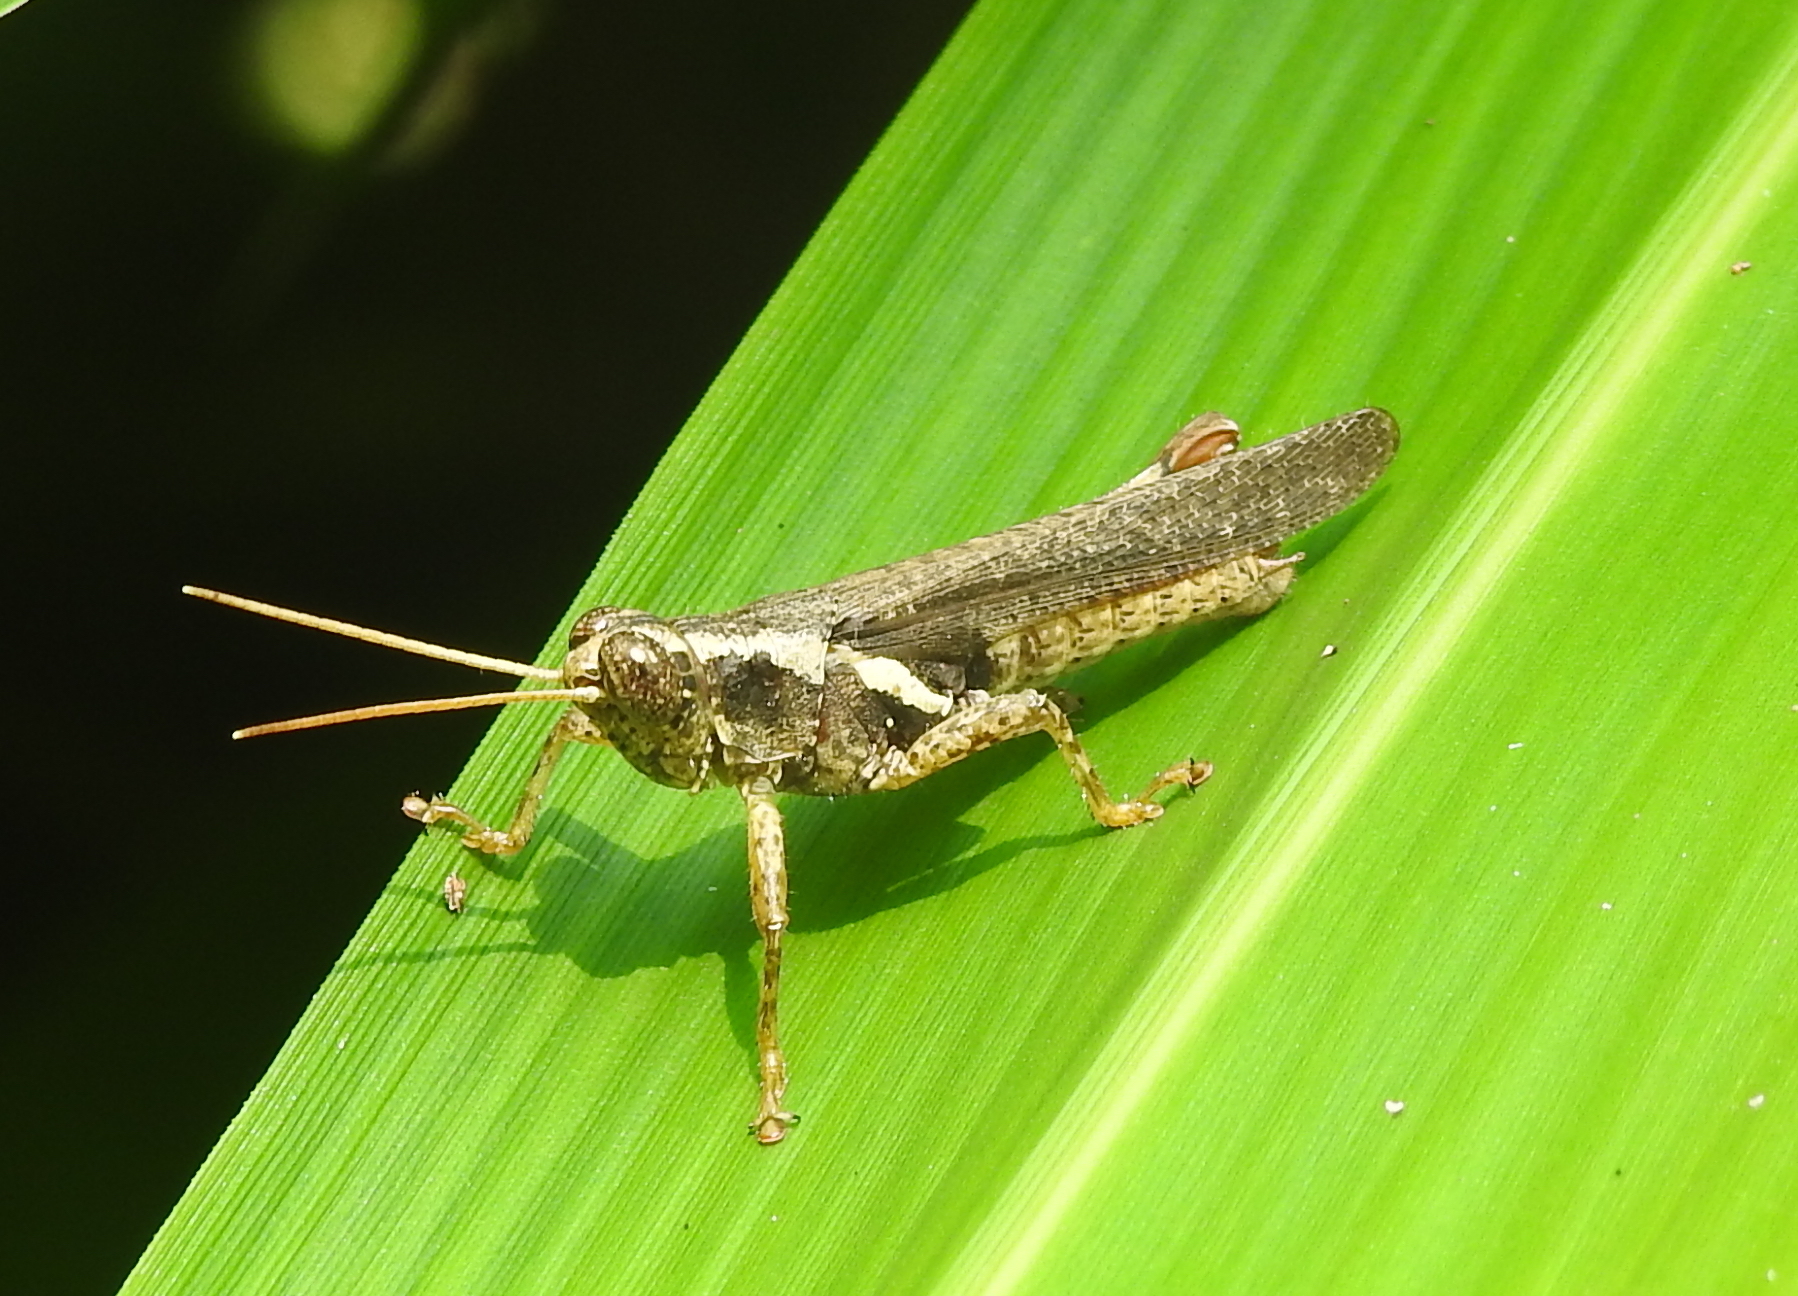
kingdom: Animalia
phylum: Arthropoda
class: Insecta
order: Orthoptera
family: Acrididae
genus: Xenocatantops
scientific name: Xenocatantops humile
